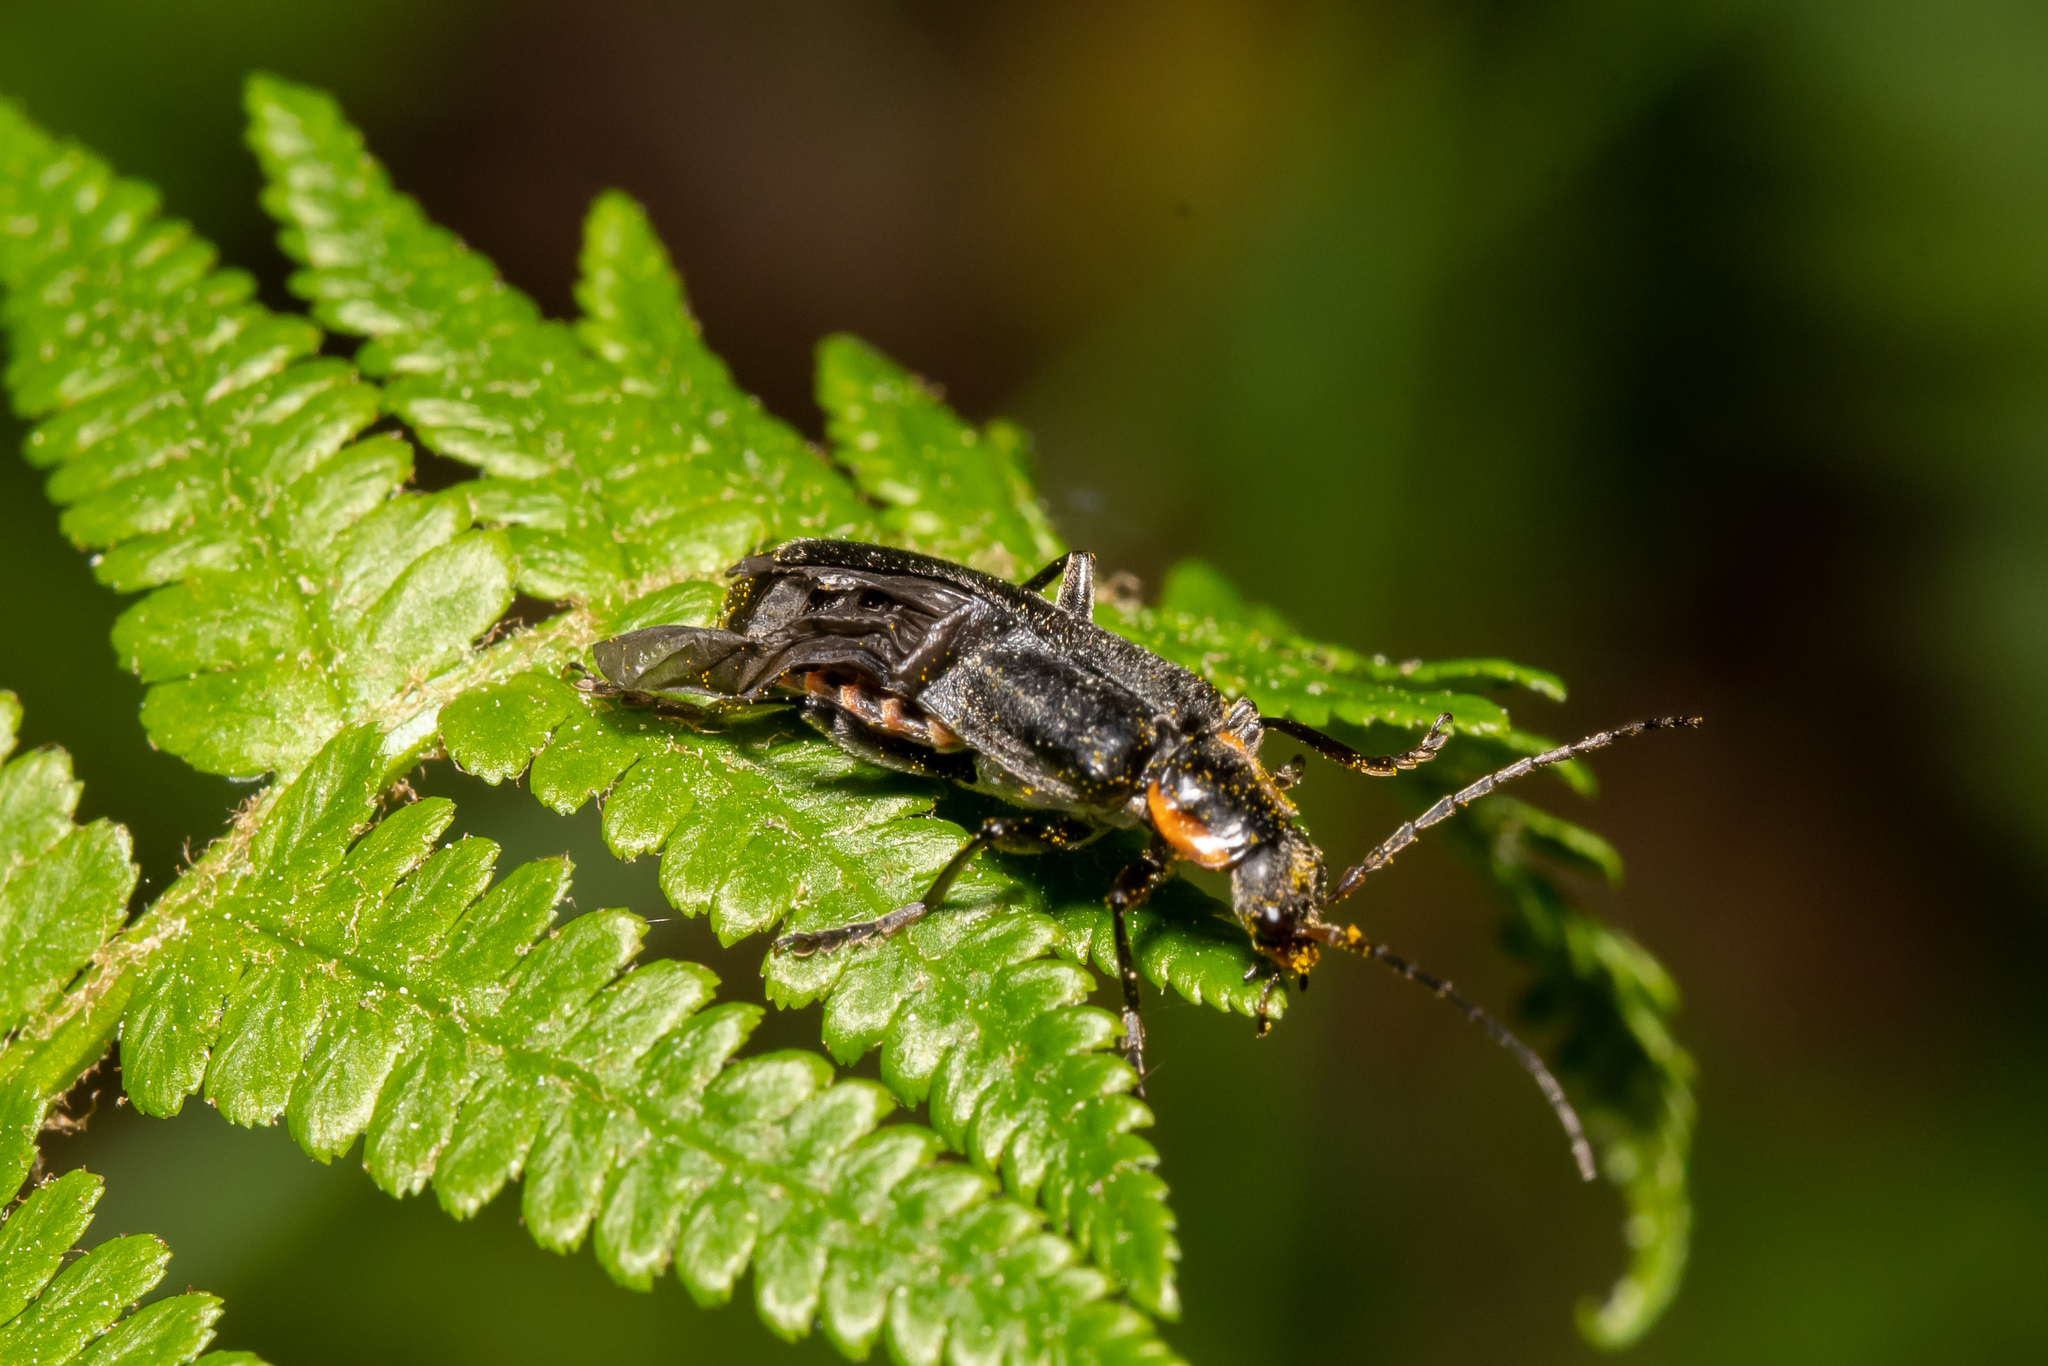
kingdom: Animalia
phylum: Arthropoda
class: Insecta
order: Coleoptera
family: Cantharidae
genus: Cantharis
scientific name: Cantharis obscura
